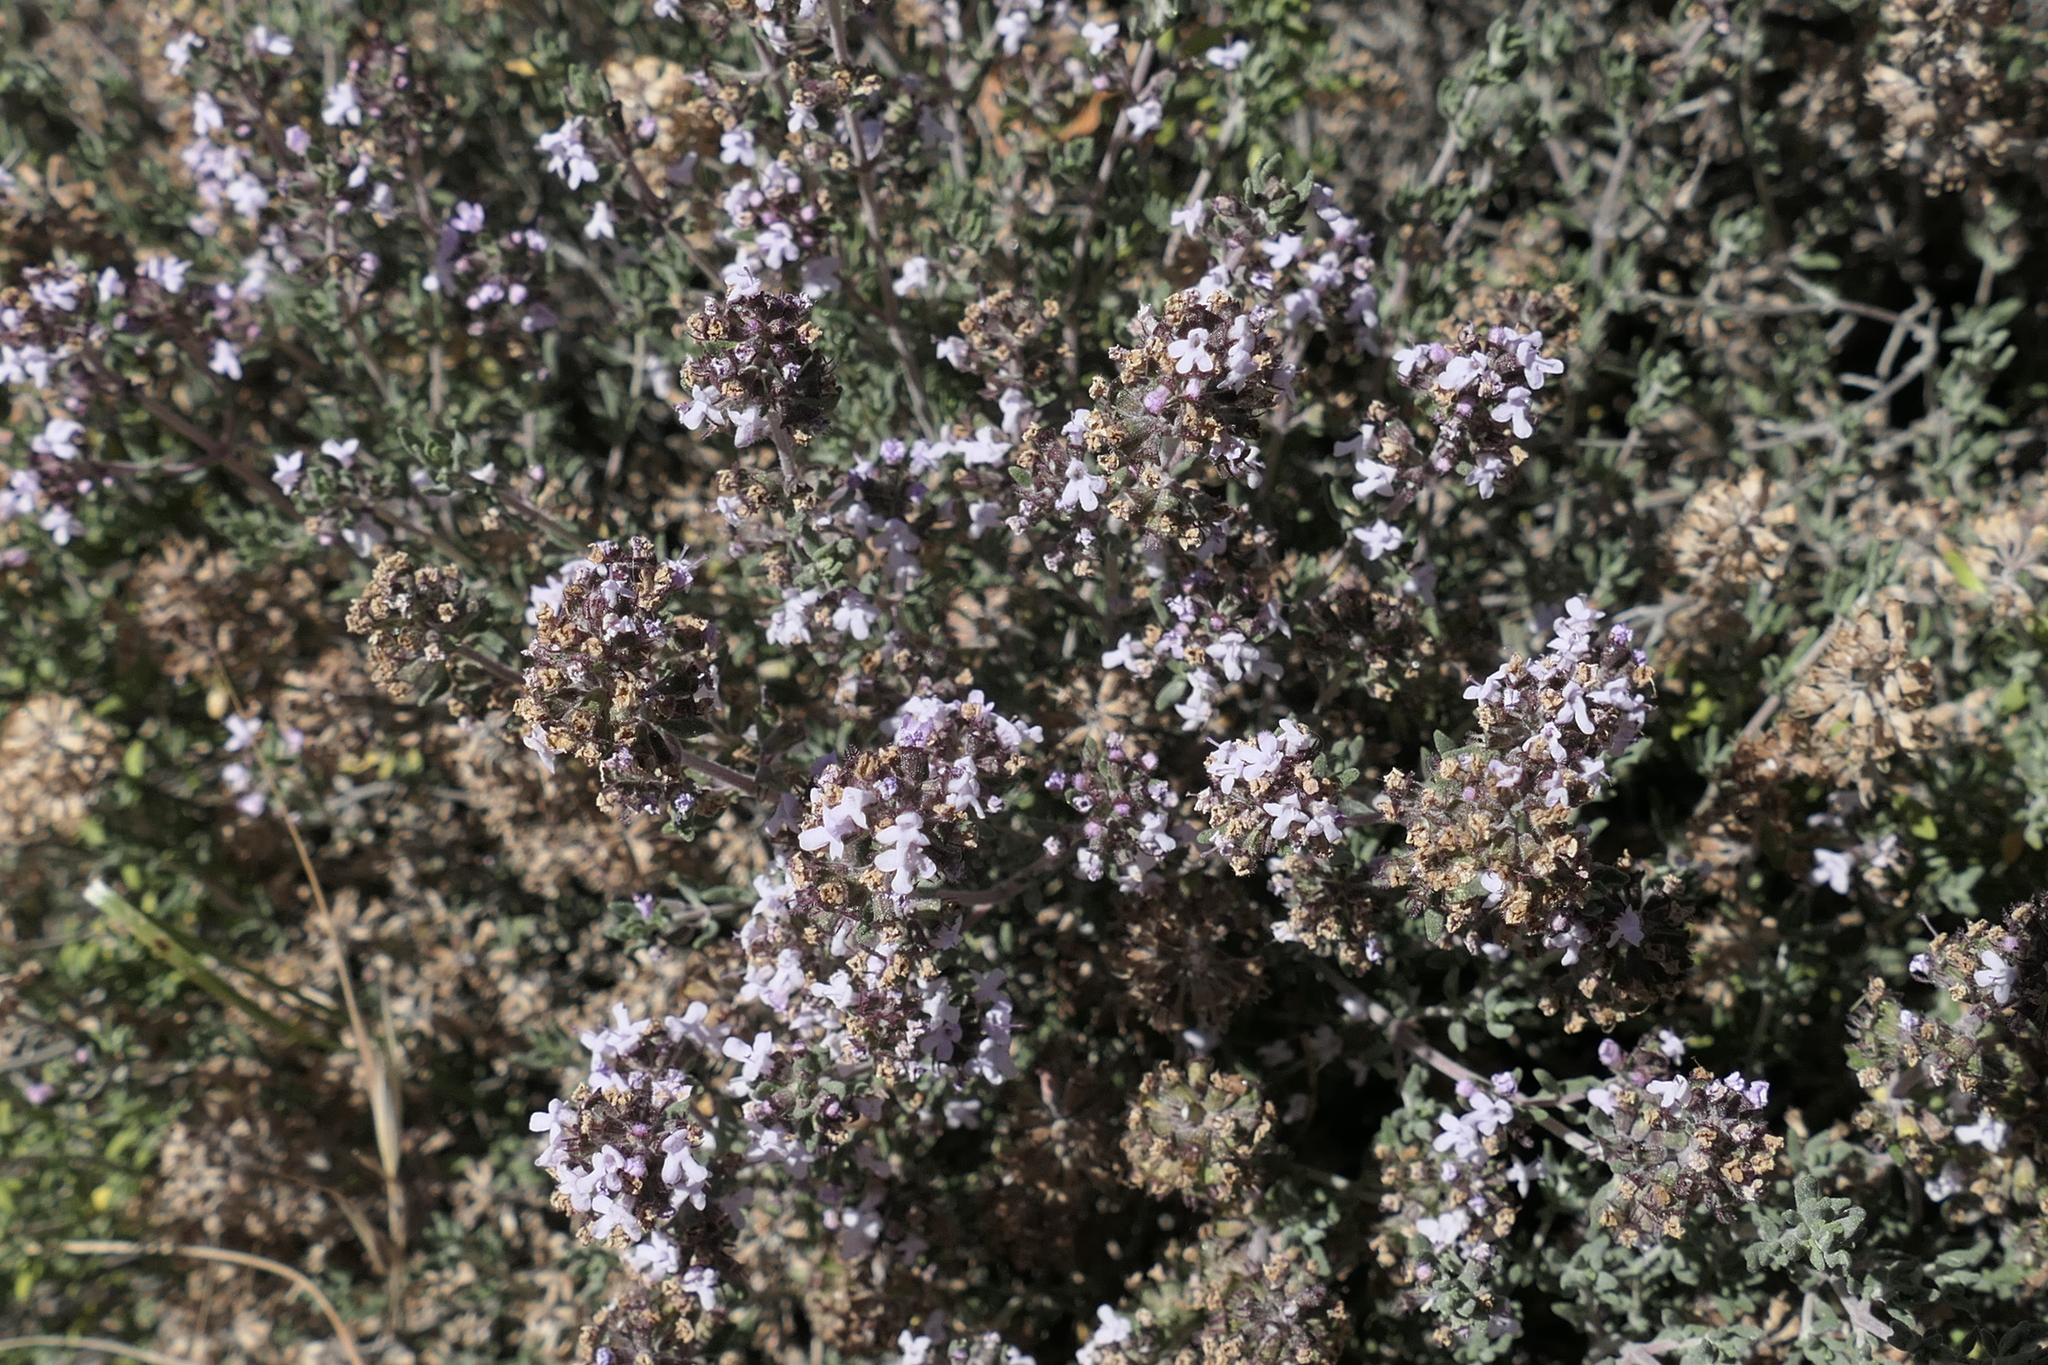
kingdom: Plantae
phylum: Tracheophyta
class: Magnoliopsida
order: Lamiales
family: Lamiaceae
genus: Thymus
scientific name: Thymus vulgaris
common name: Garden thyme
